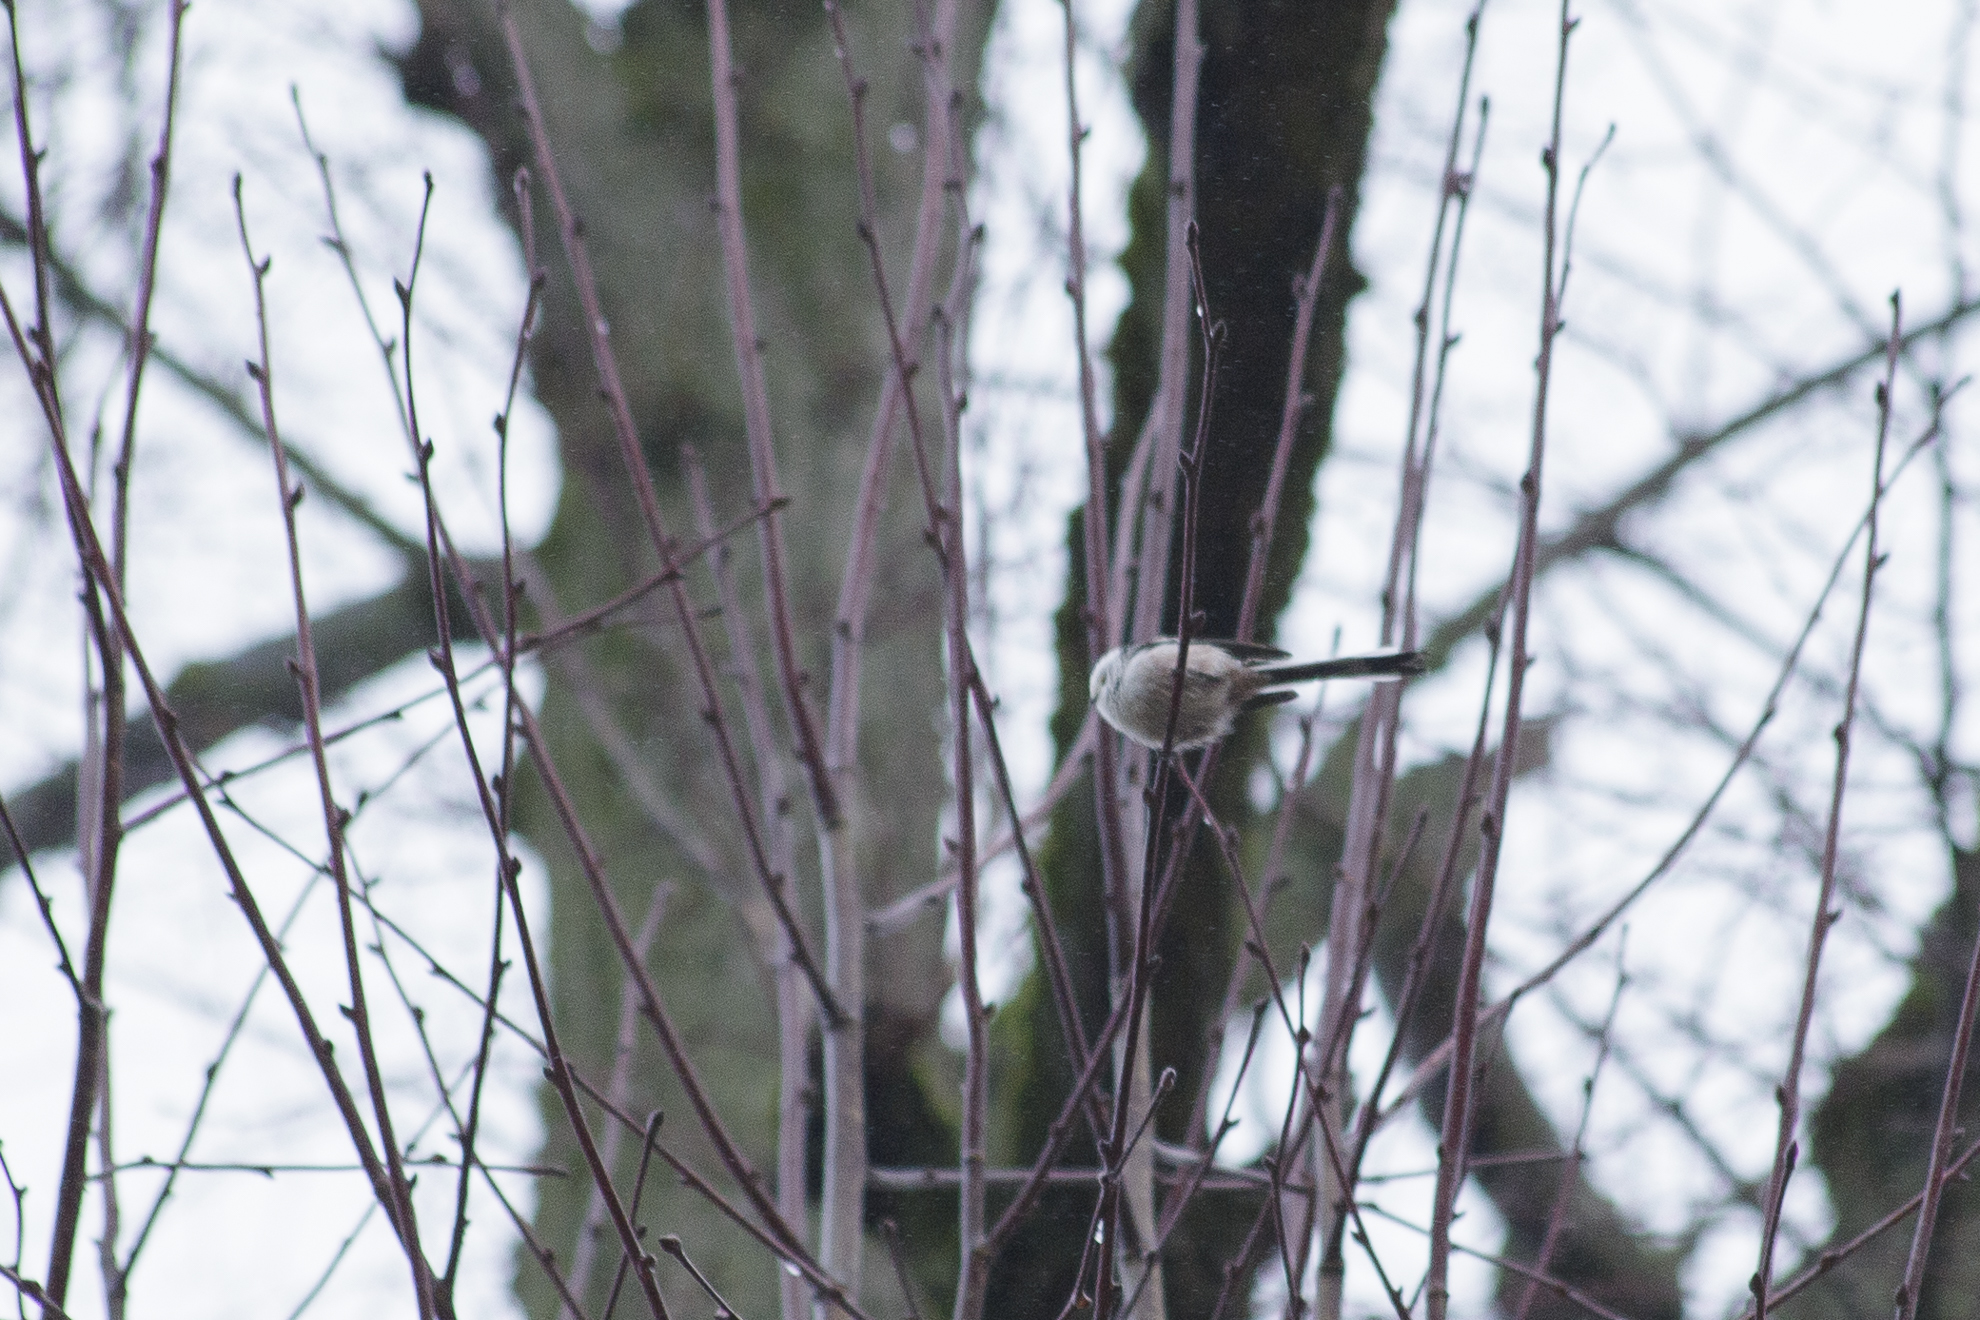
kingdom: Animalia
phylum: Chordata
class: Aves
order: Passeriformes
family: Aegithalidae
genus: Aegithalos
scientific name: Aegithalos caudatus
